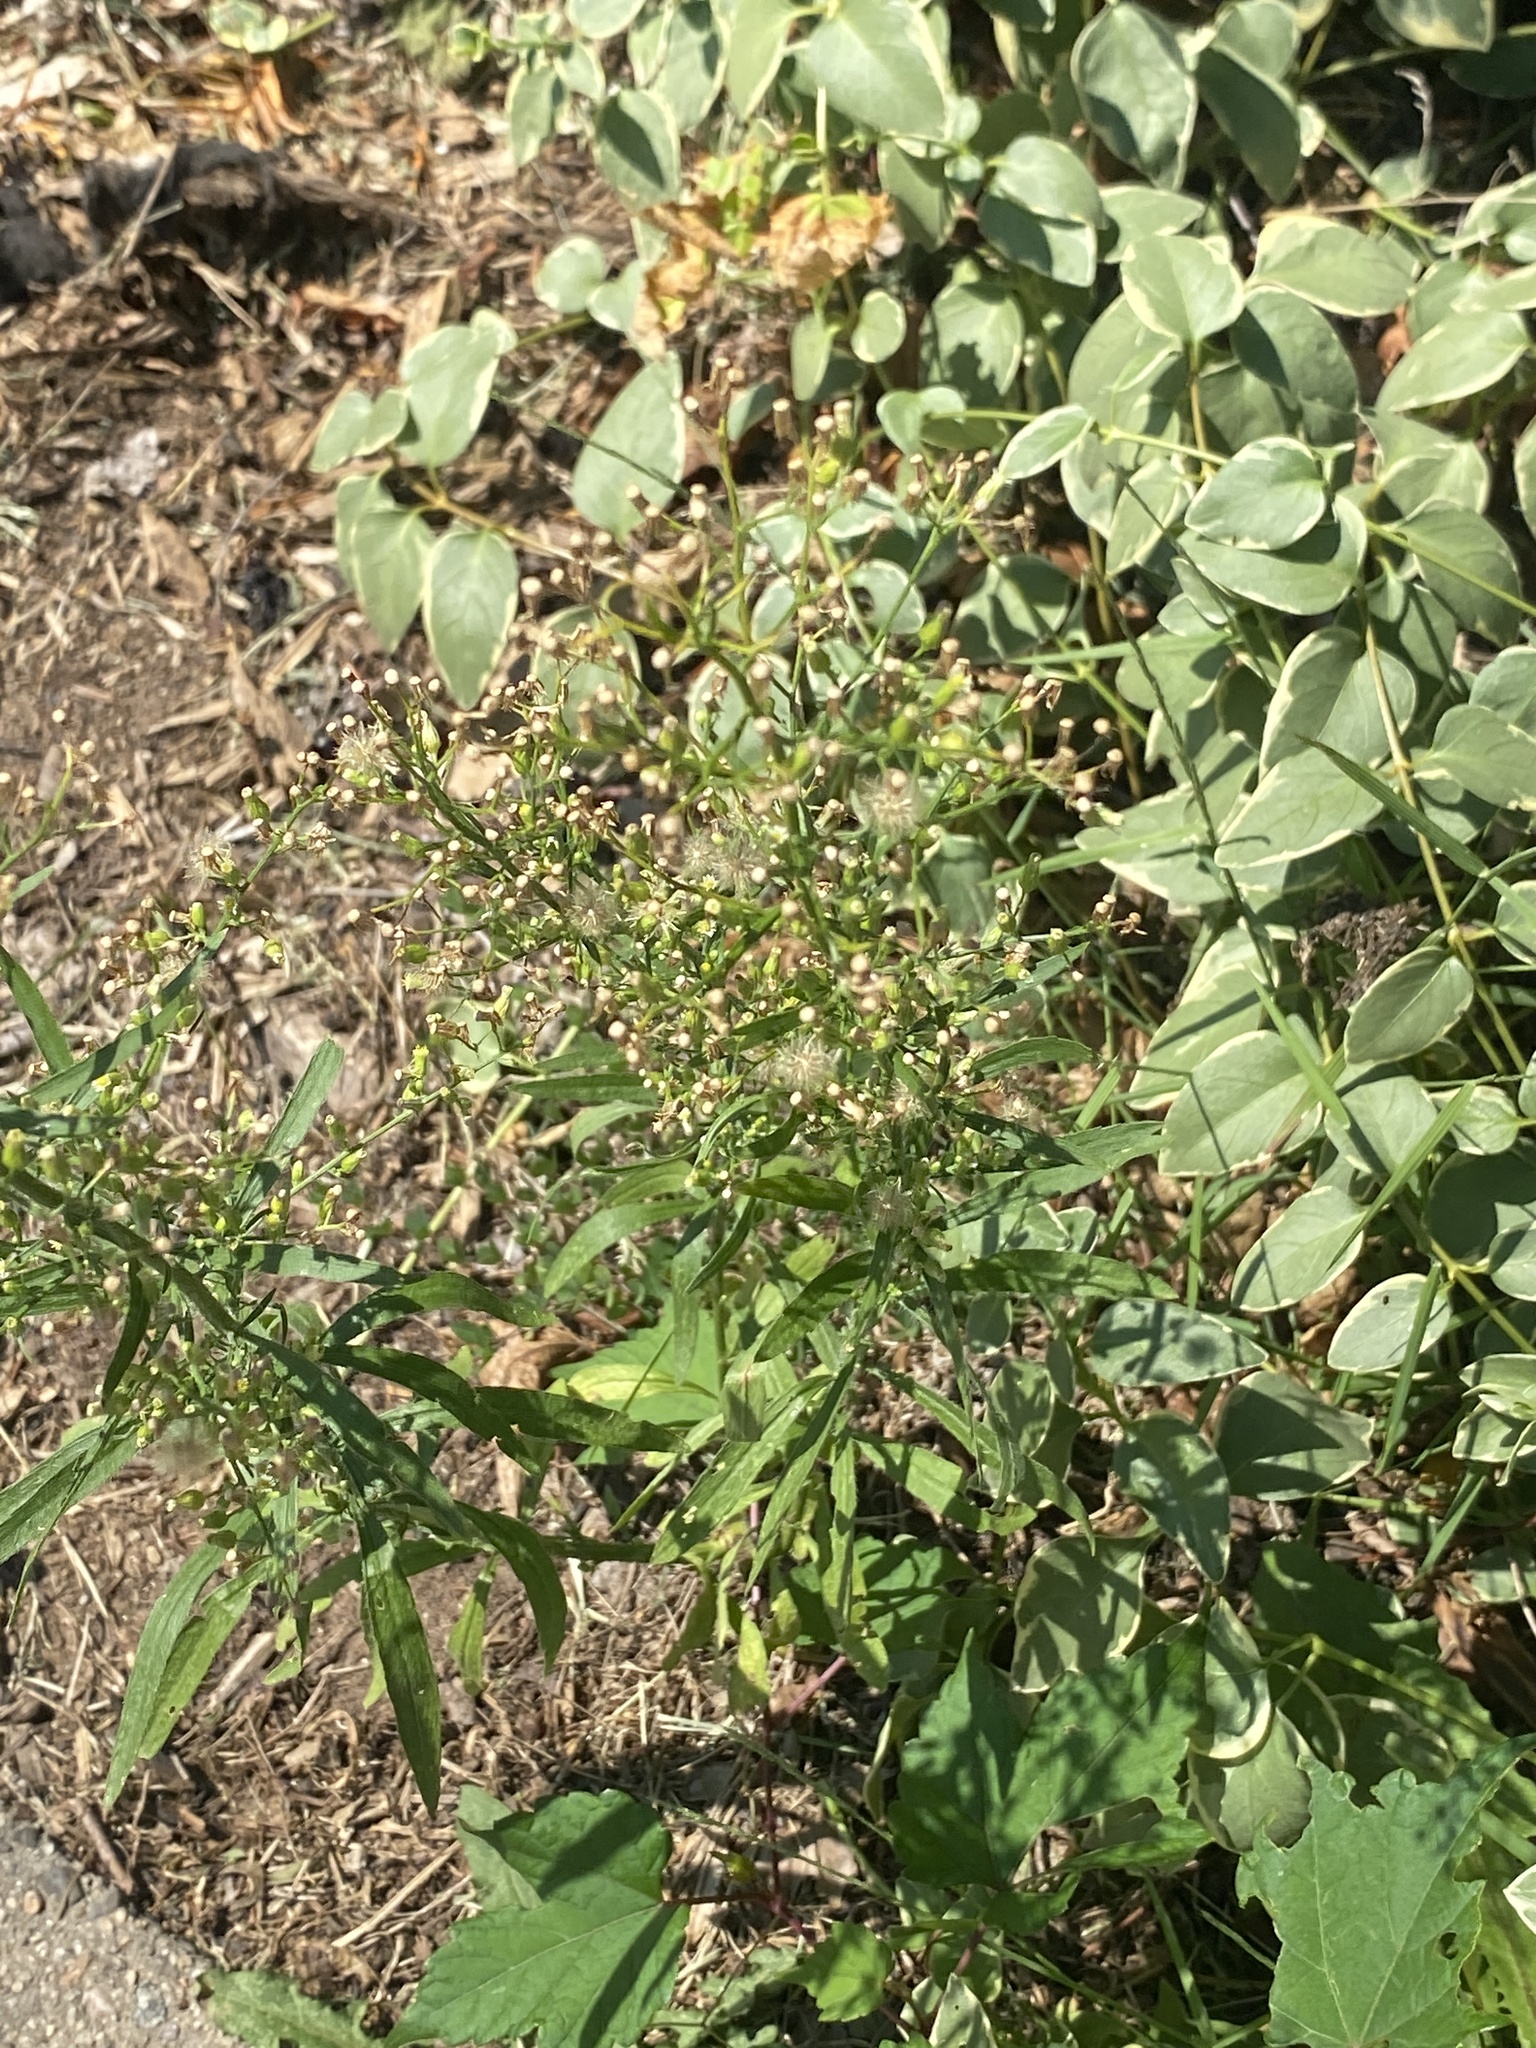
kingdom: Plantae
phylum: Tracheophyta
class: Magnoliopsida
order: Asterales
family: Asteraceae
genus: Erigeron
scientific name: Erigeron canadensis
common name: Canadian fleabane
